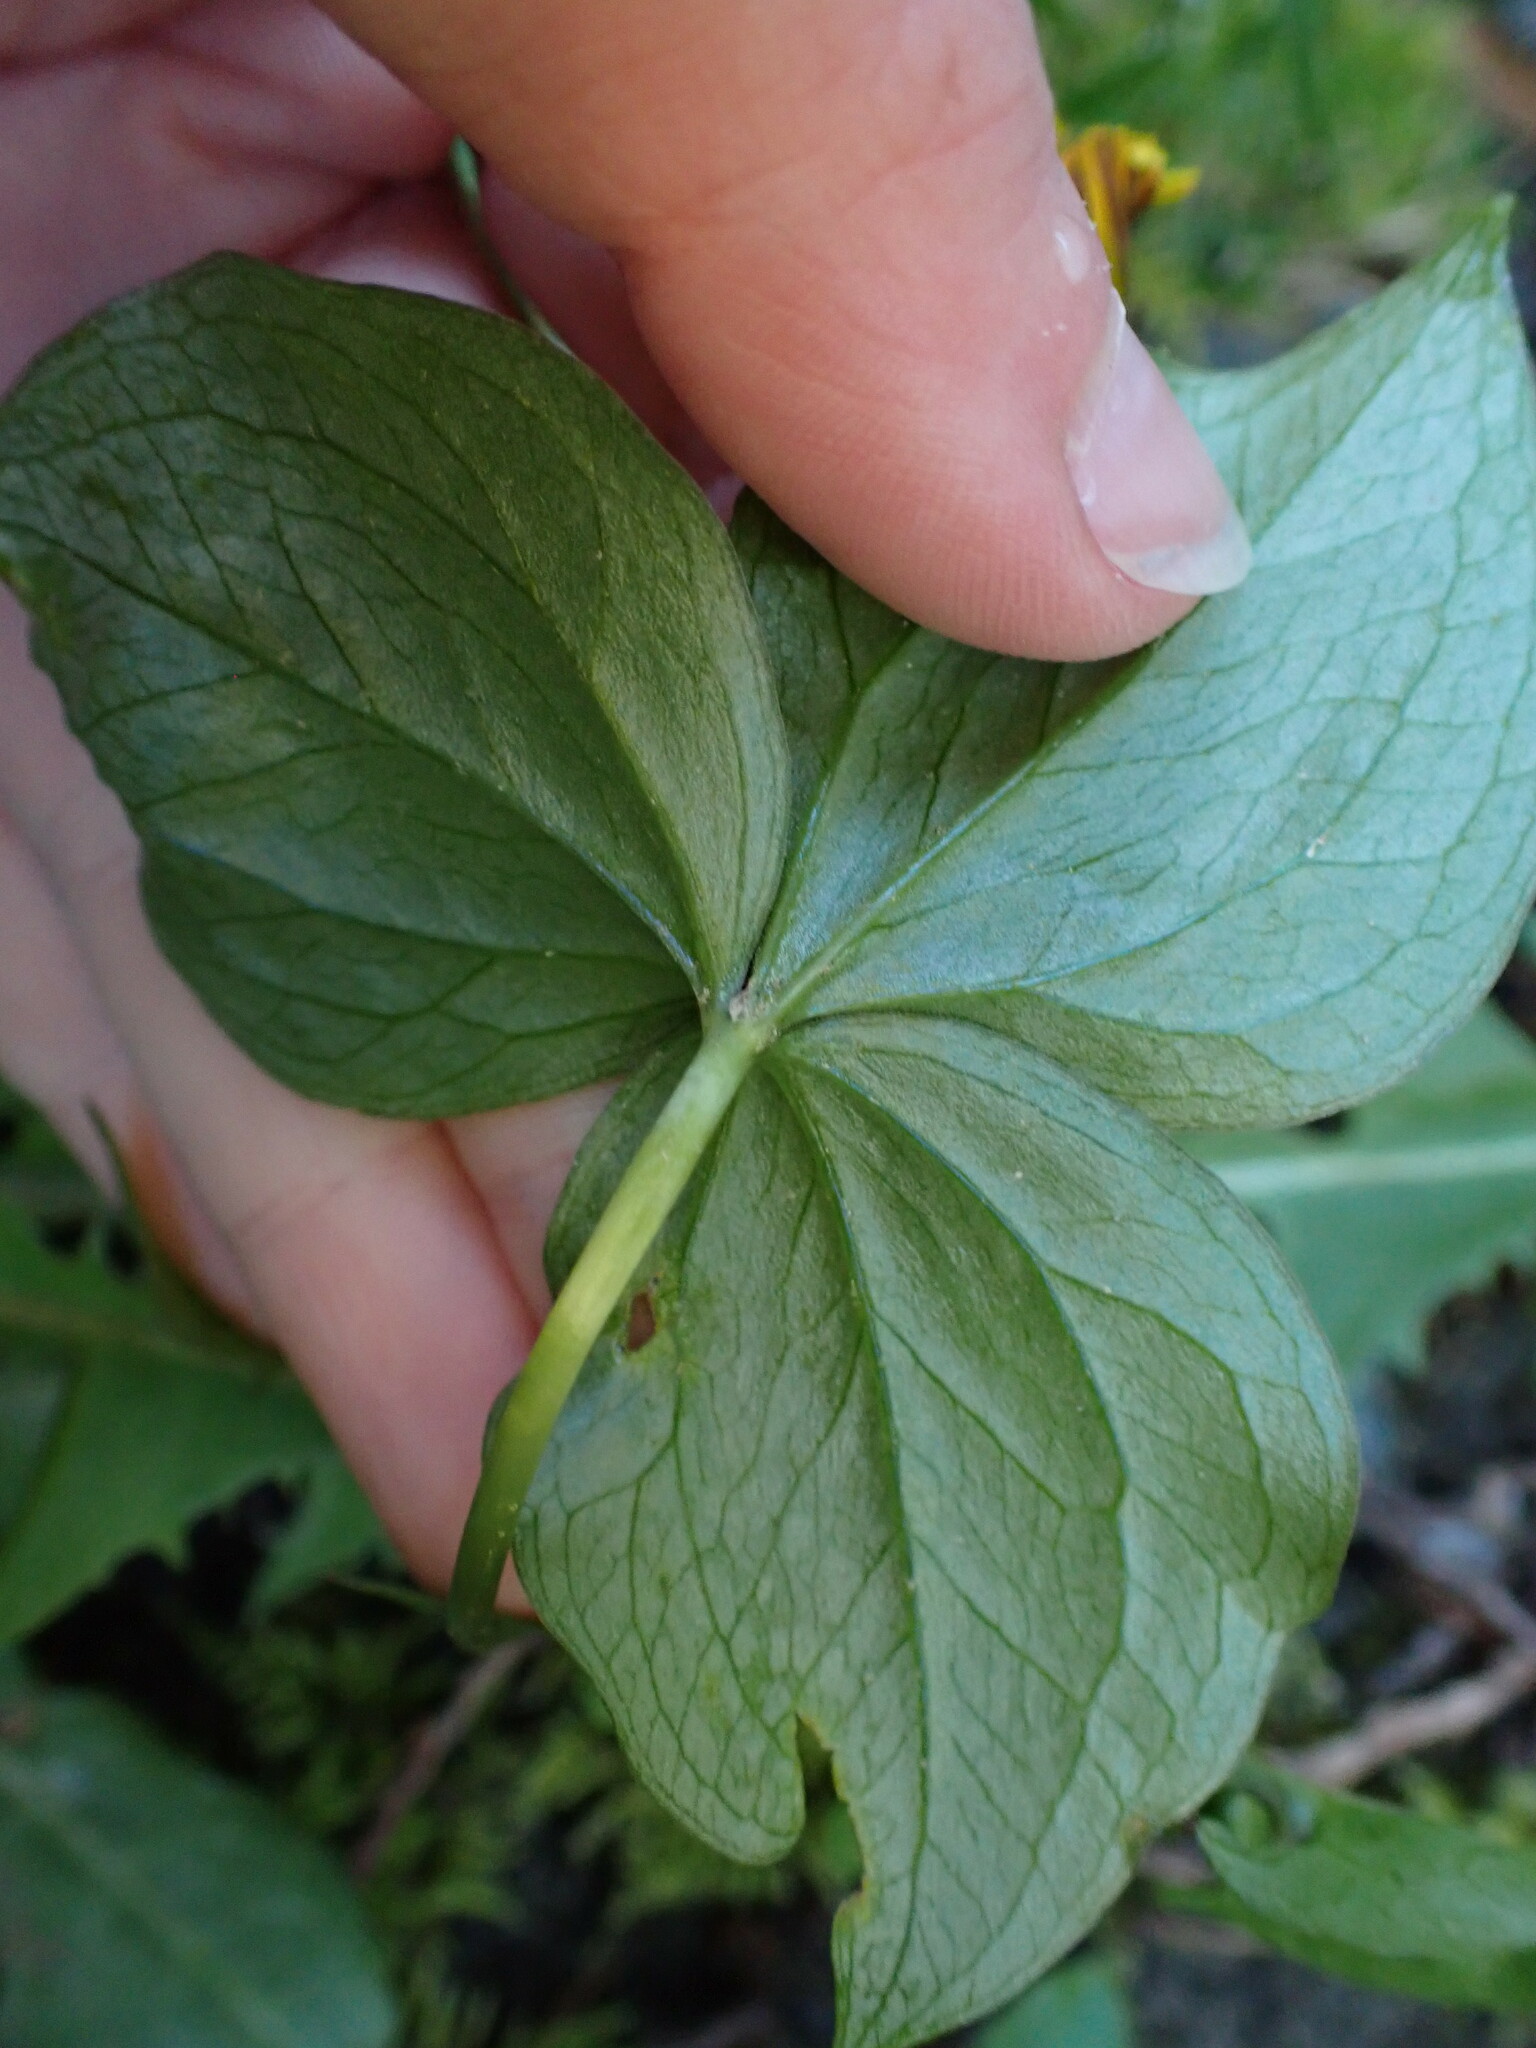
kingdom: Plantae
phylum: Tracheophyta
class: Liliopsida
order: Liliales
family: Melanthiaceae
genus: Trillium
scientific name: Trillium ovatum
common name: Pacific trillium
